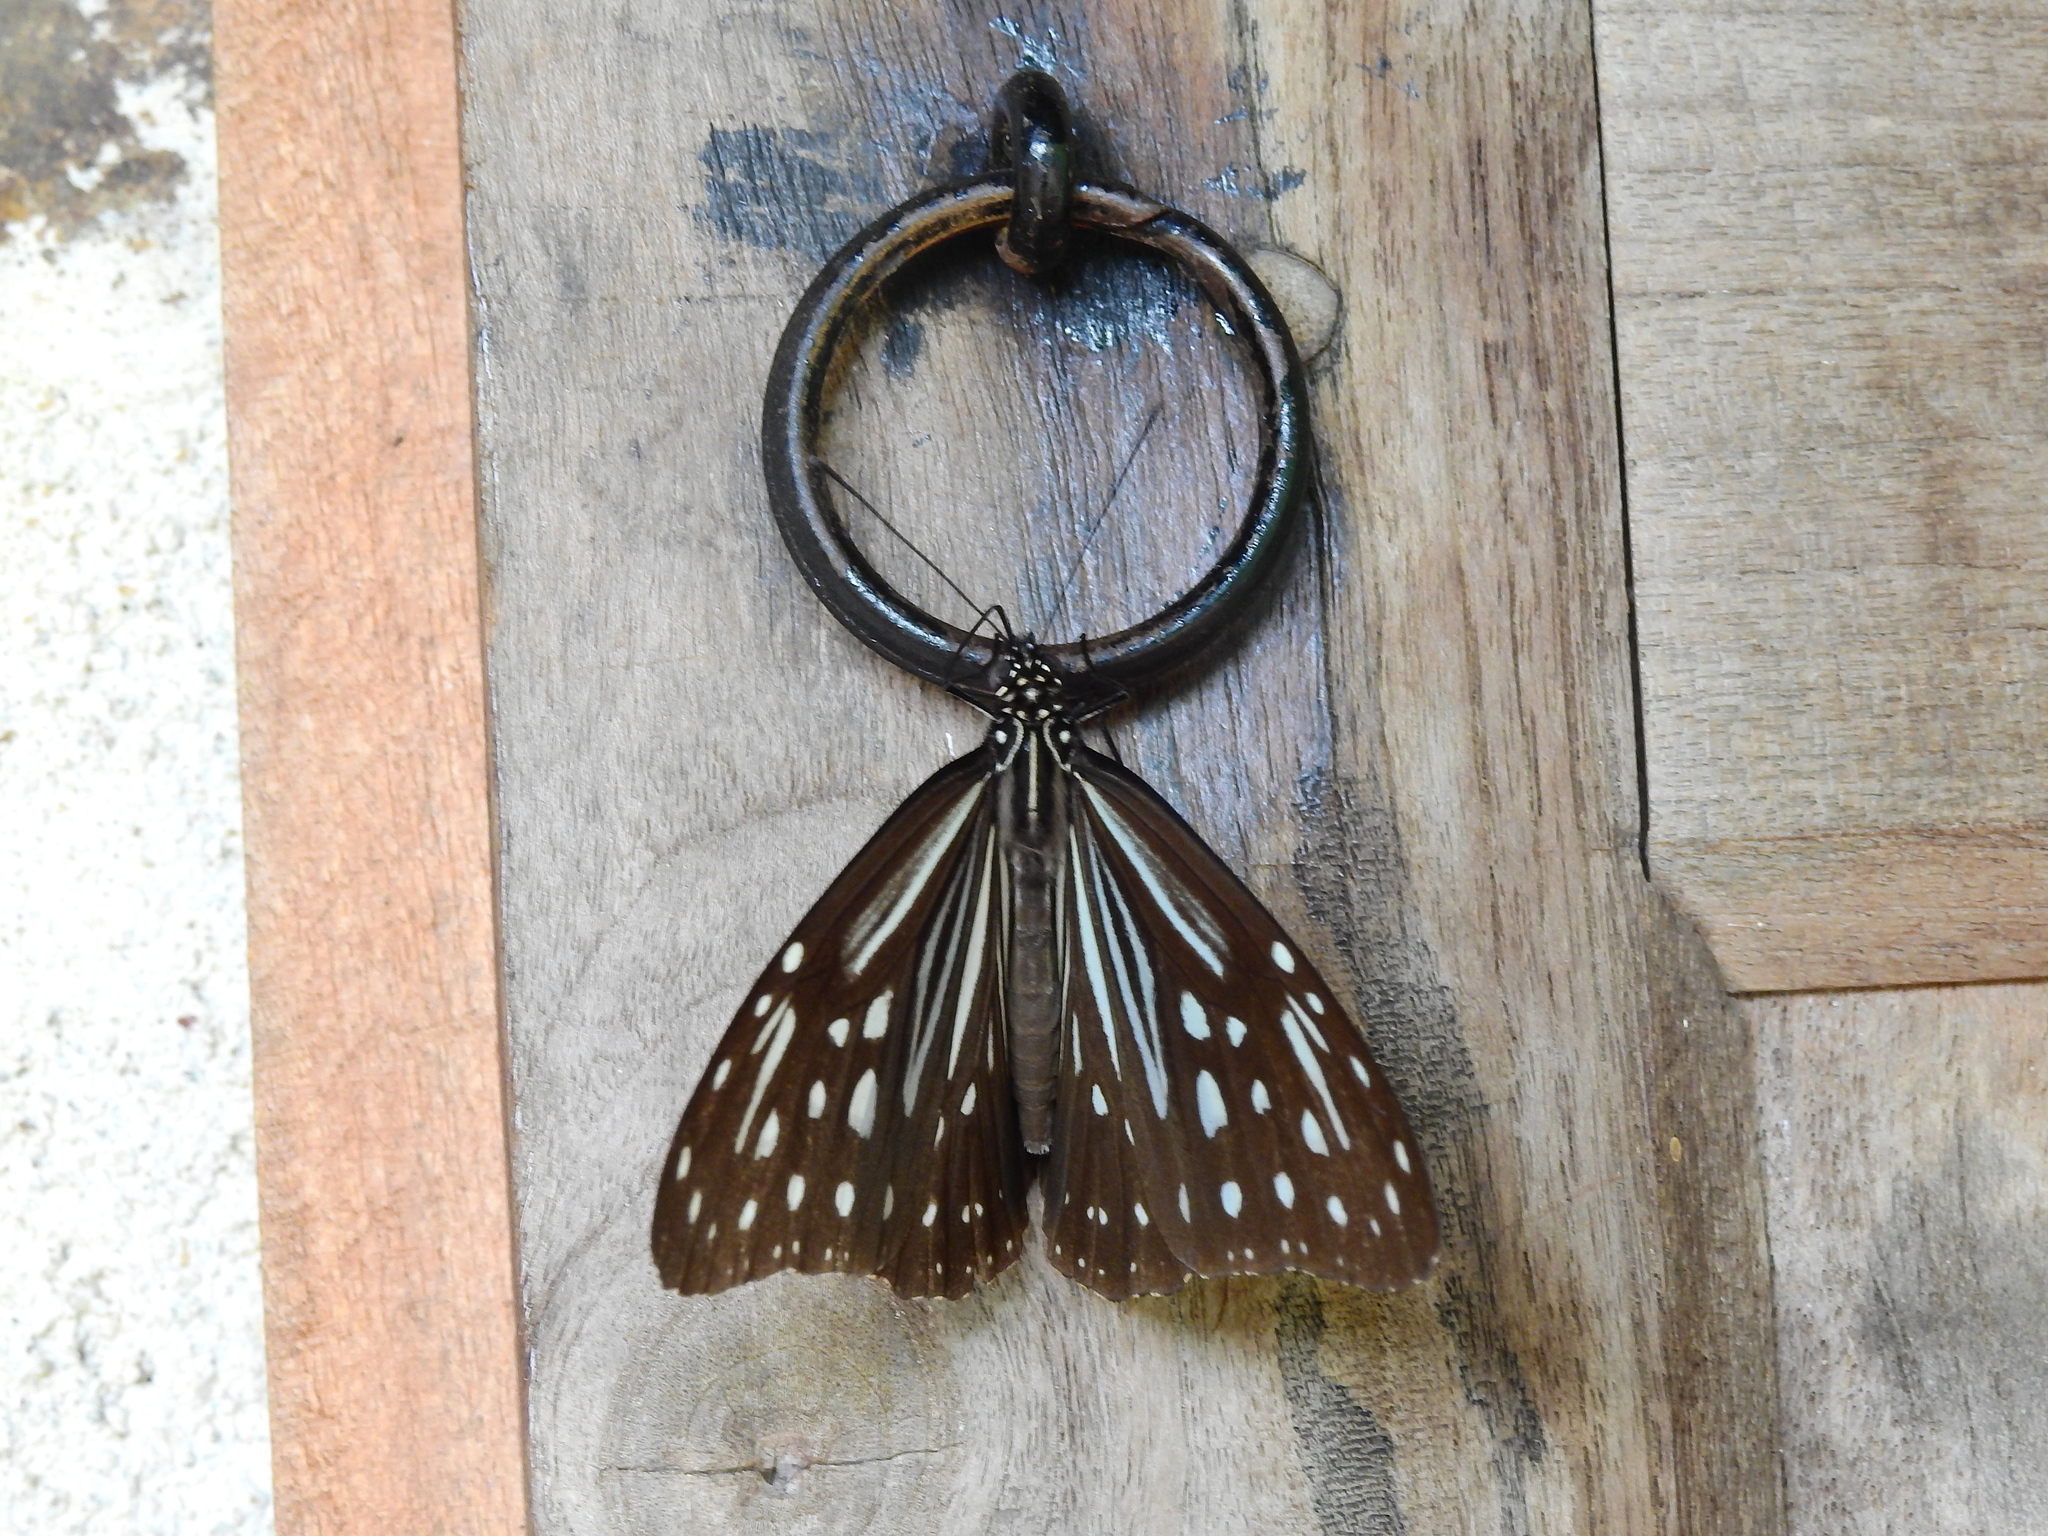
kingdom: Animalia
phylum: Arthropoda
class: Insecta
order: Lepidoptera
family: Nymphalidae
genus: Parantica
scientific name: Parantica nilgiriensis
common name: Nilgiri tiger
